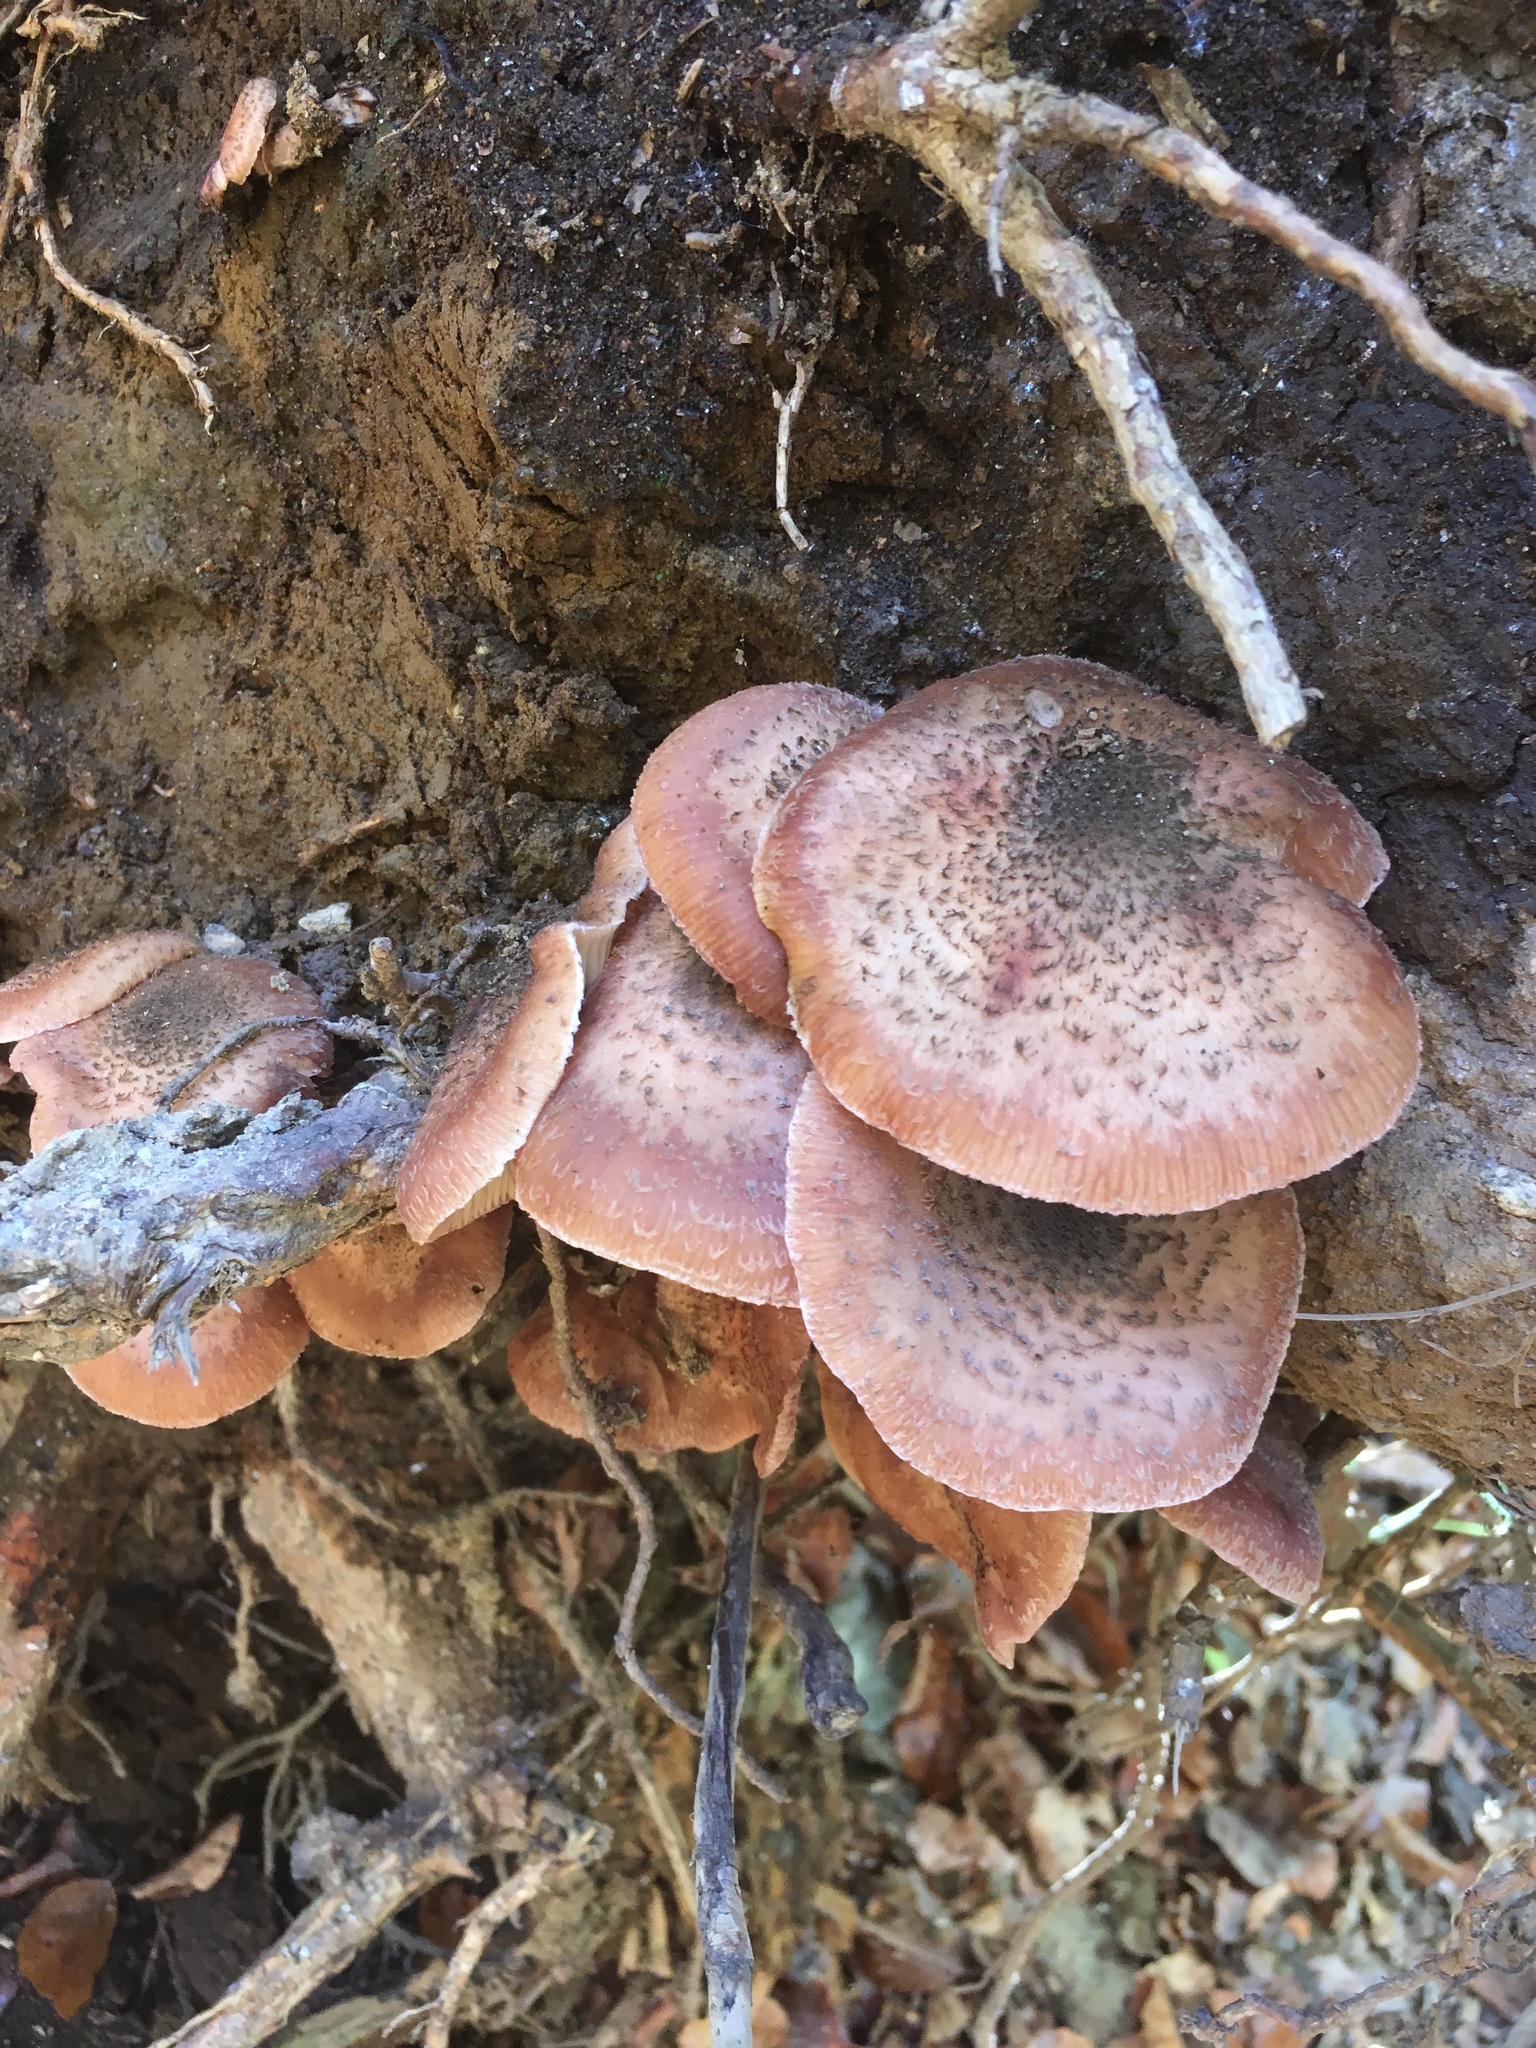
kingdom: Fungi
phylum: Basidiomycota
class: Agaricomycetes
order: Agaricales
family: Physalacriaceae
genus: Armillaria
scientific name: Armillaria mellea
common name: Honey fungus
